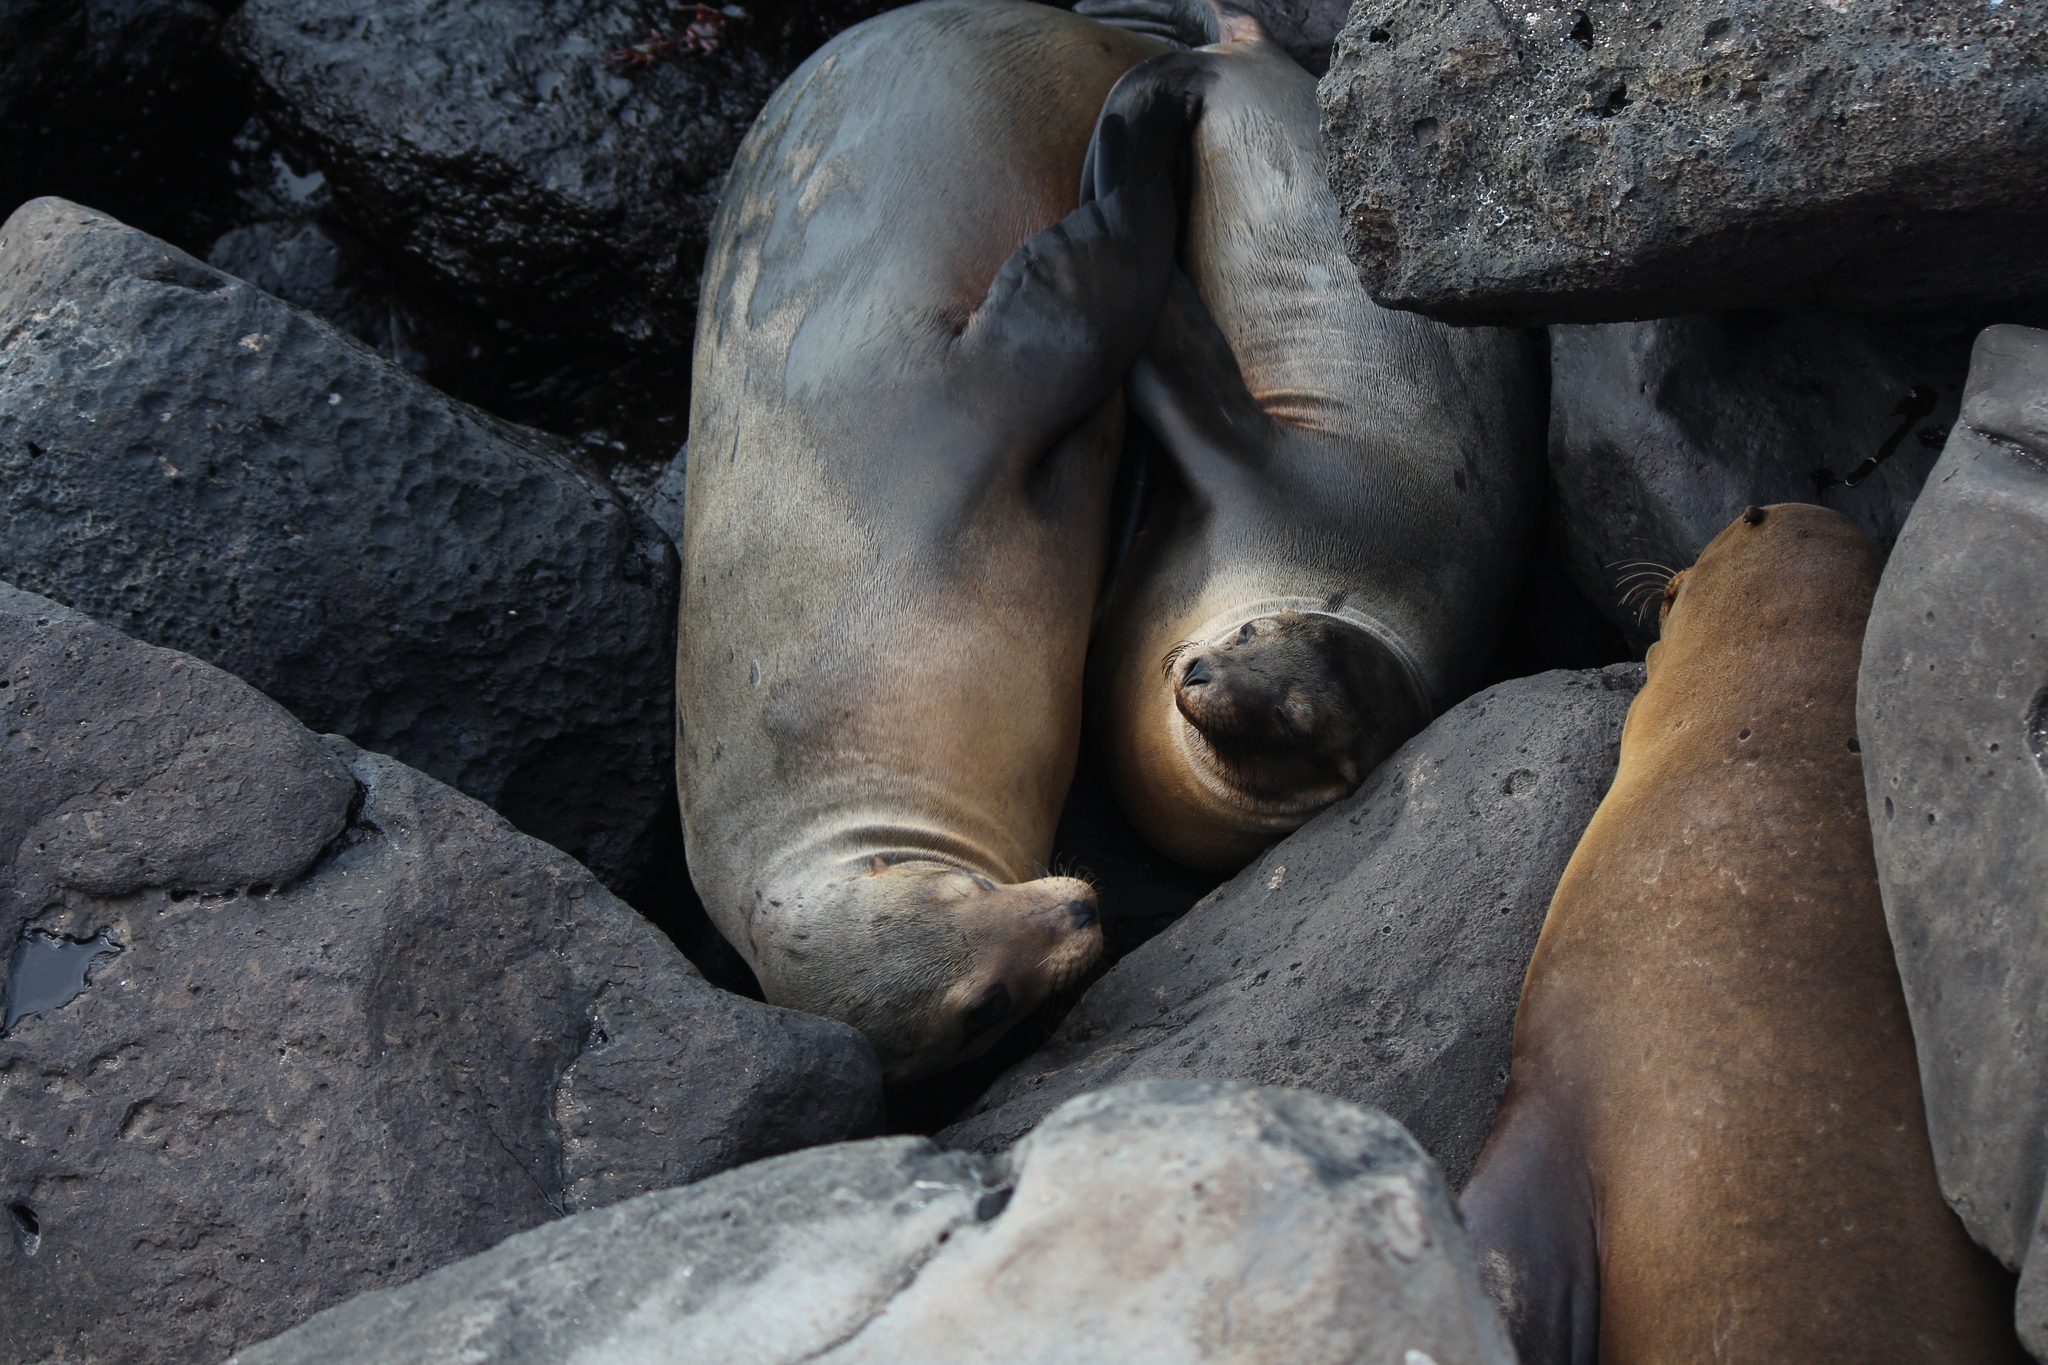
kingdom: Animalia
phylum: Chordata
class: Mammalia
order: Carnivora
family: Otariidae
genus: Zalophus
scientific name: Zalophus wollebaeki
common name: Galapagos sea lion
